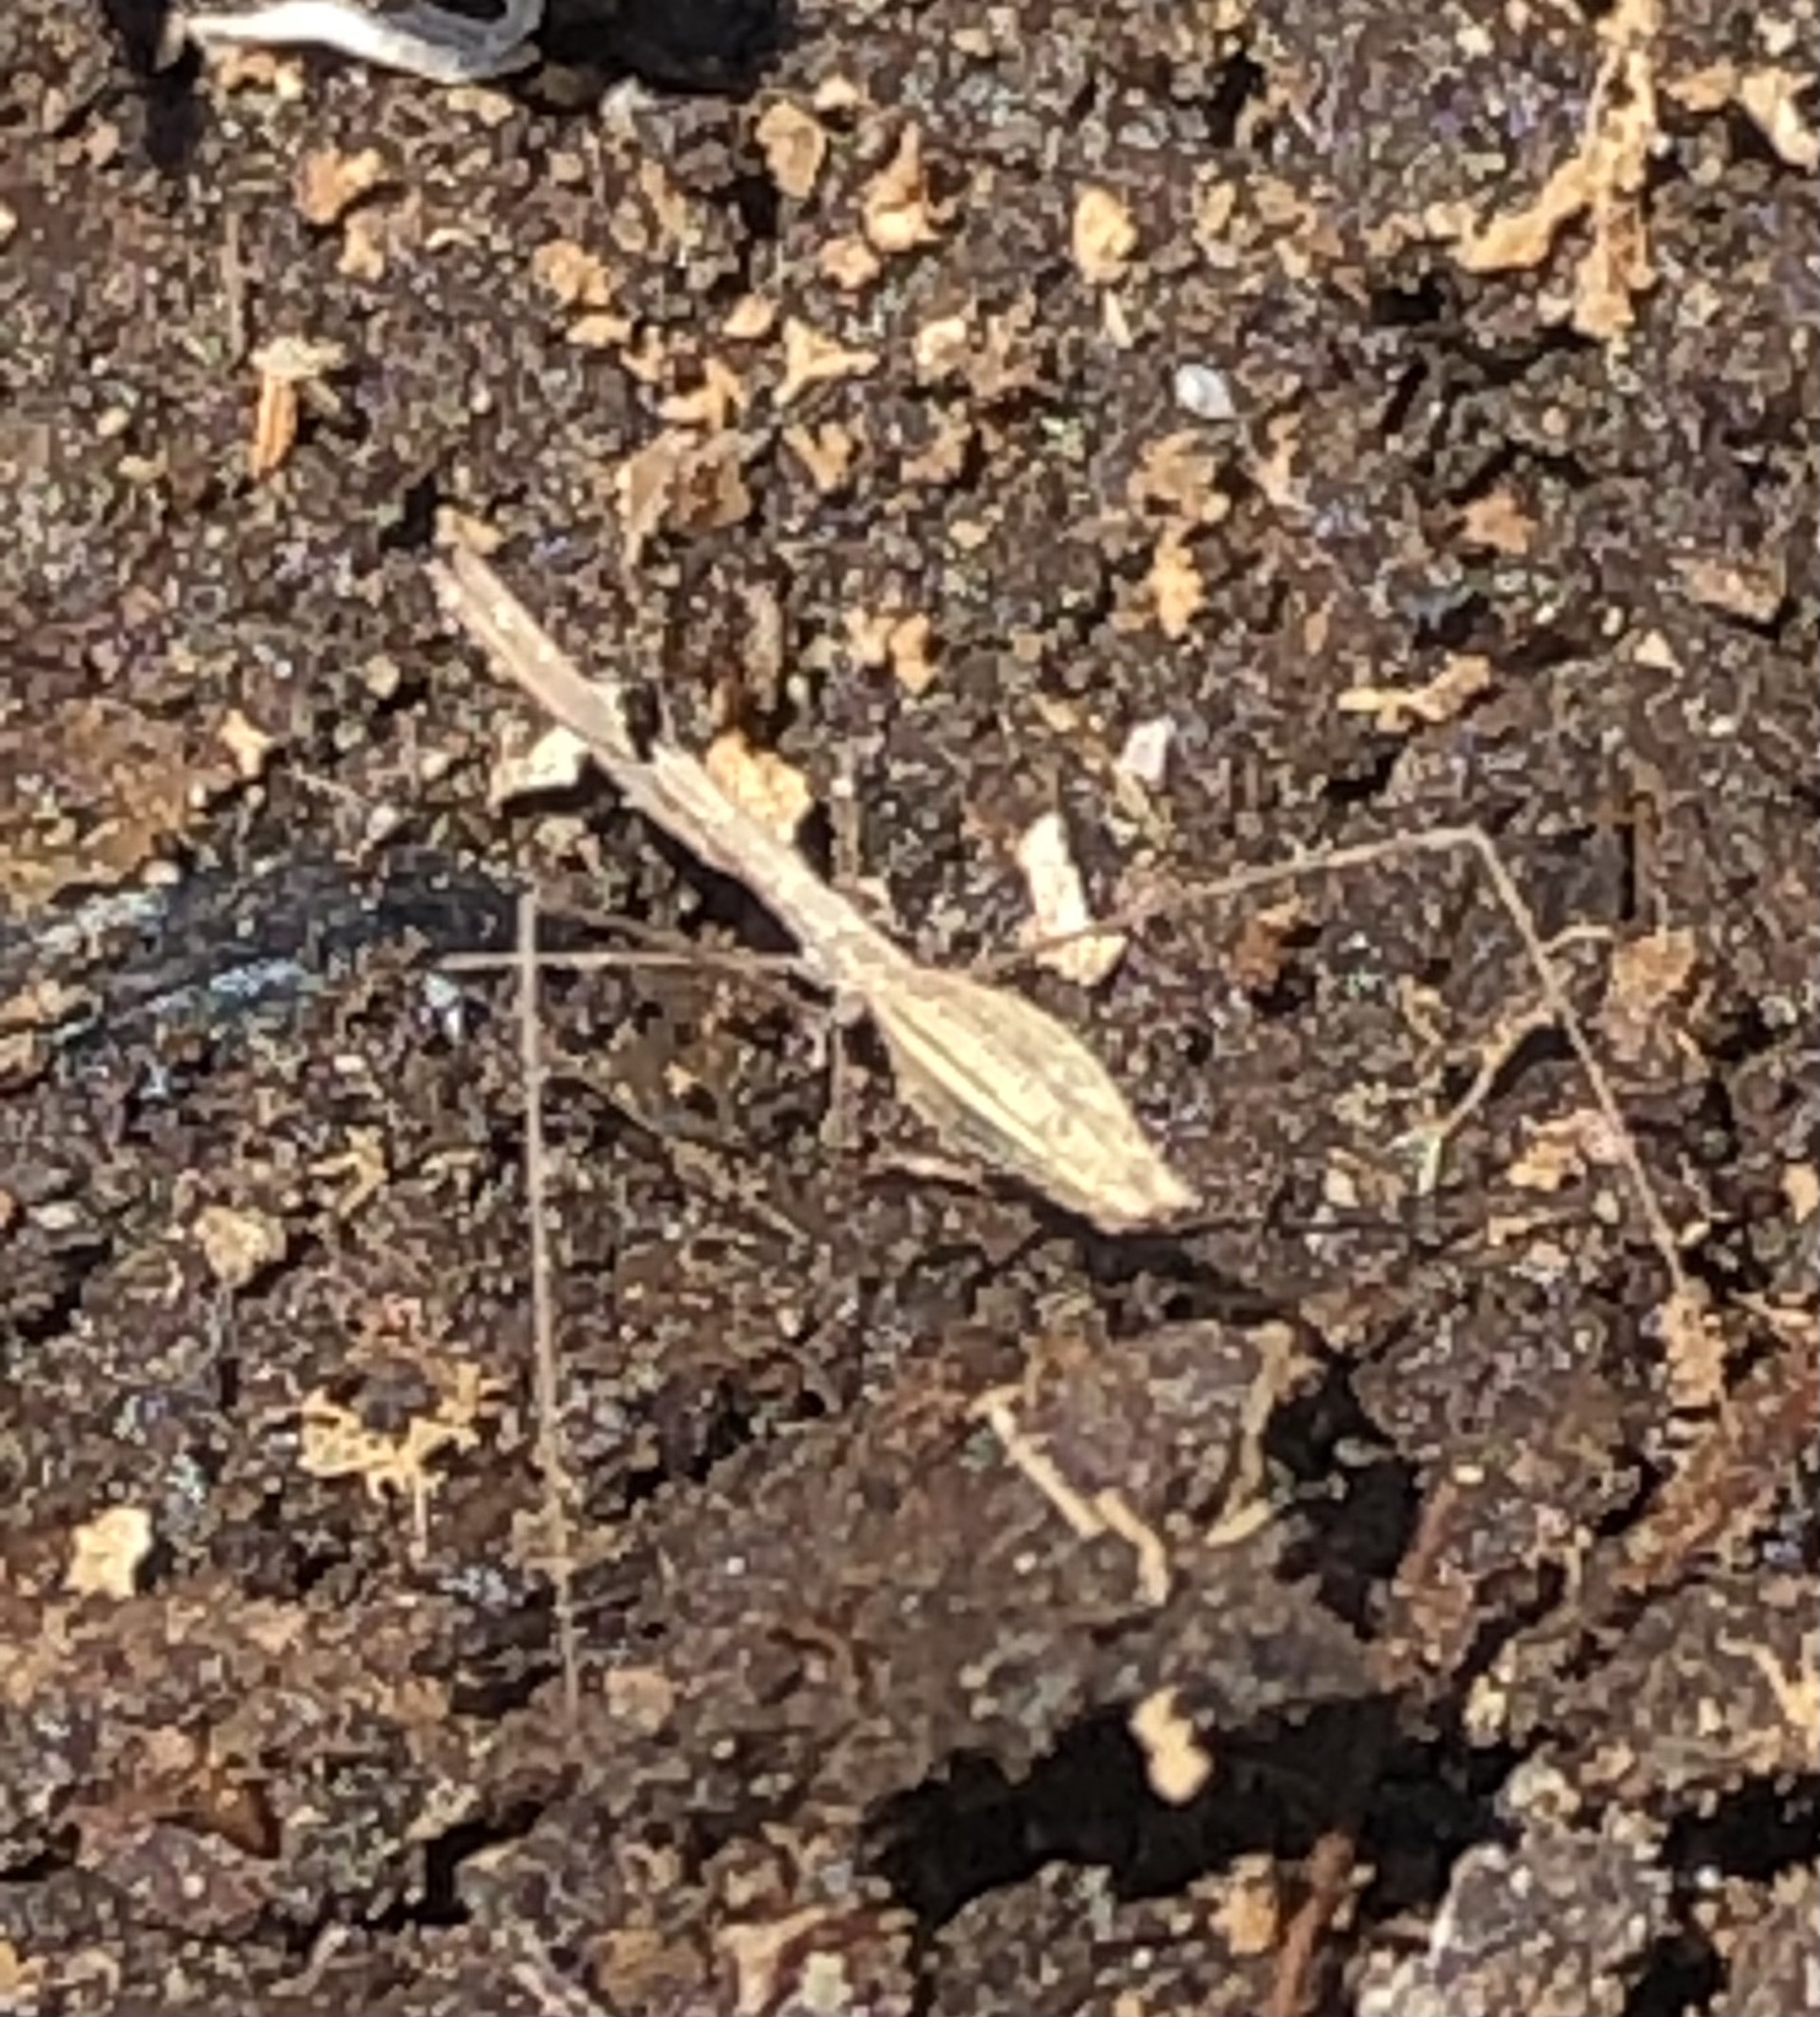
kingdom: Animalia
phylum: Arthropoda
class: Insecta
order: Hemiptera
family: Reduviidae
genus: Ploiaria
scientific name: Ploiaria chilensis
